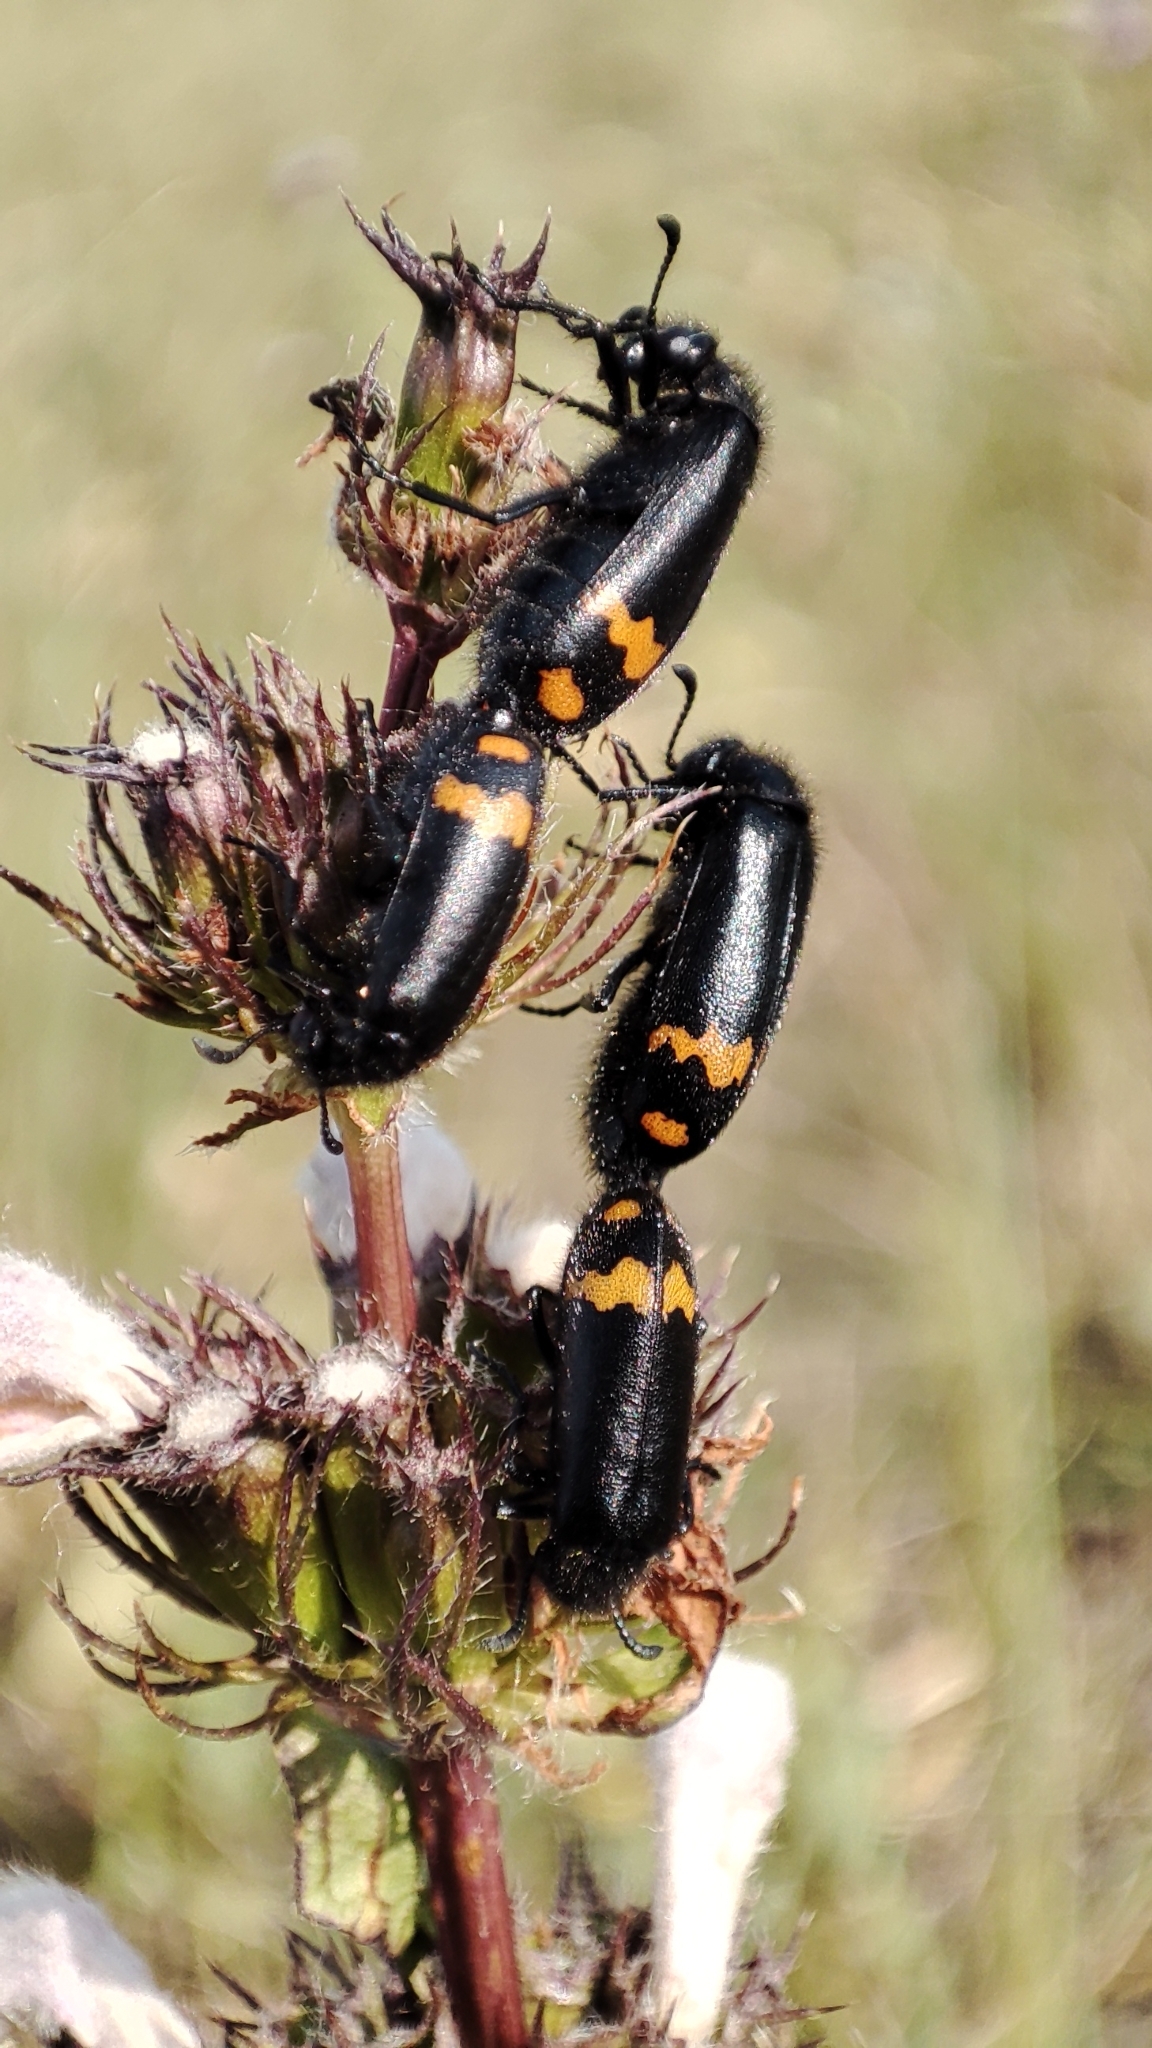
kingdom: Animalia
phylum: Arthropoda
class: Insecta
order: Coleoptera
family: Meloidae
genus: Hycleus
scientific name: Hycleus atratus
